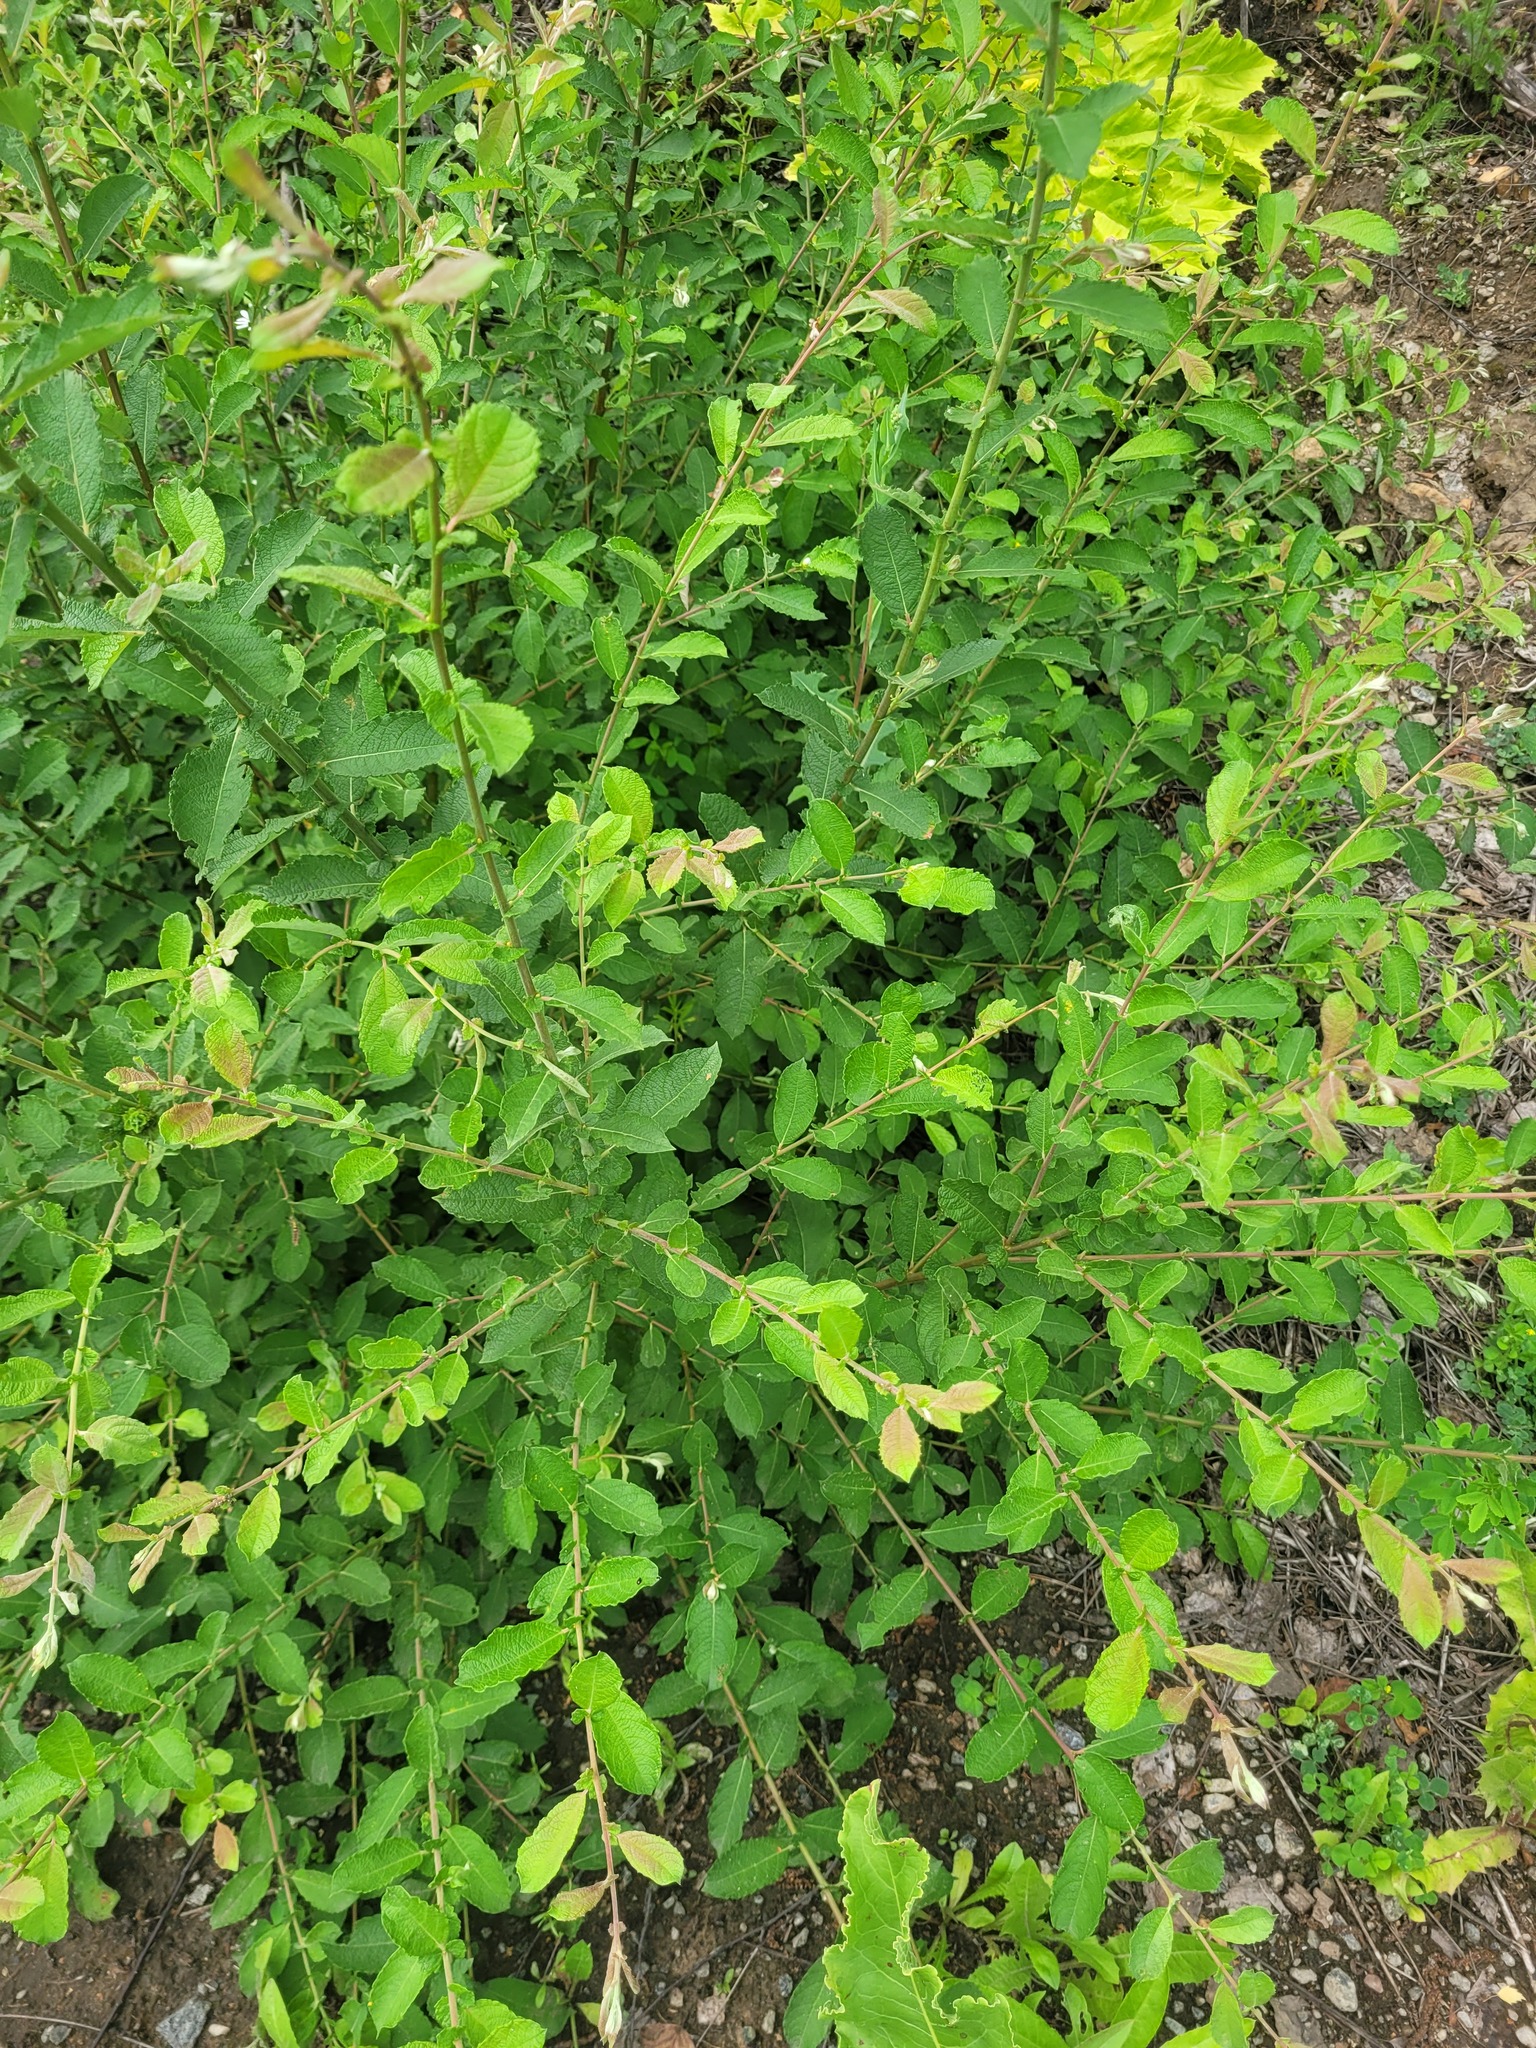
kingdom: Plantae
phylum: Tracheophyta
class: Magnoliopsida
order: Malpighiales
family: Salicaceae
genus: Salix
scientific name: Salix aurita
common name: Eared willow
